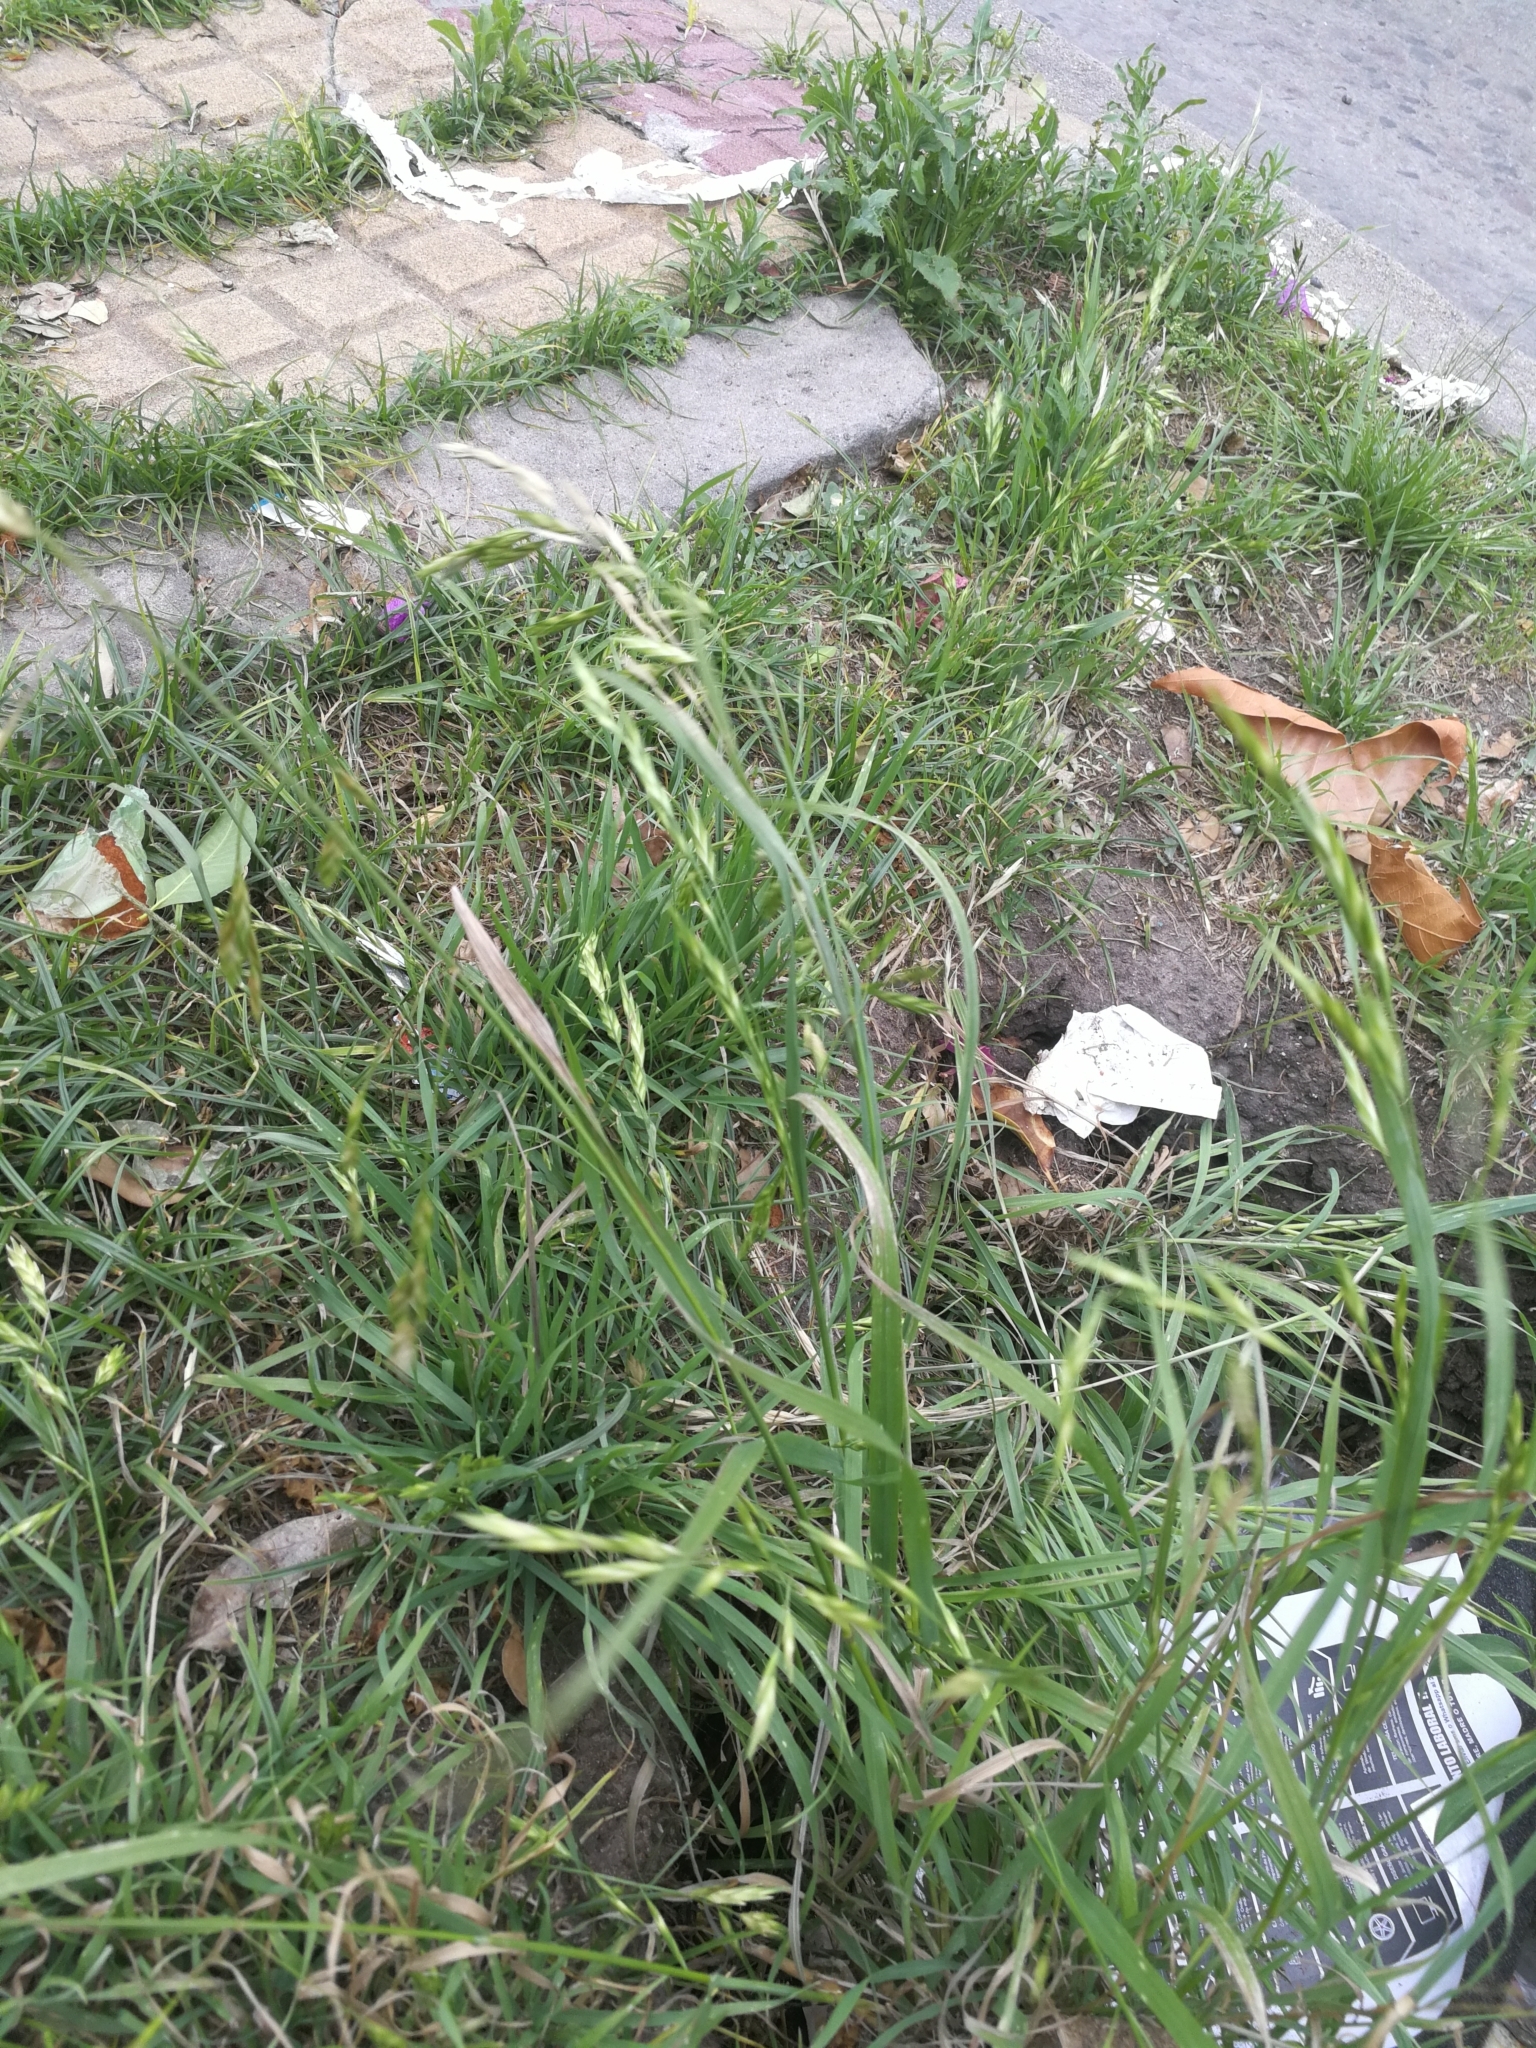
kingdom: Plantae
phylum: Tracheophyta
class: Liliopsida
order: Poales
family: Poaceae
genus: Bromus
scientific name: Bromus catharticus
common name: Rescuegrass
